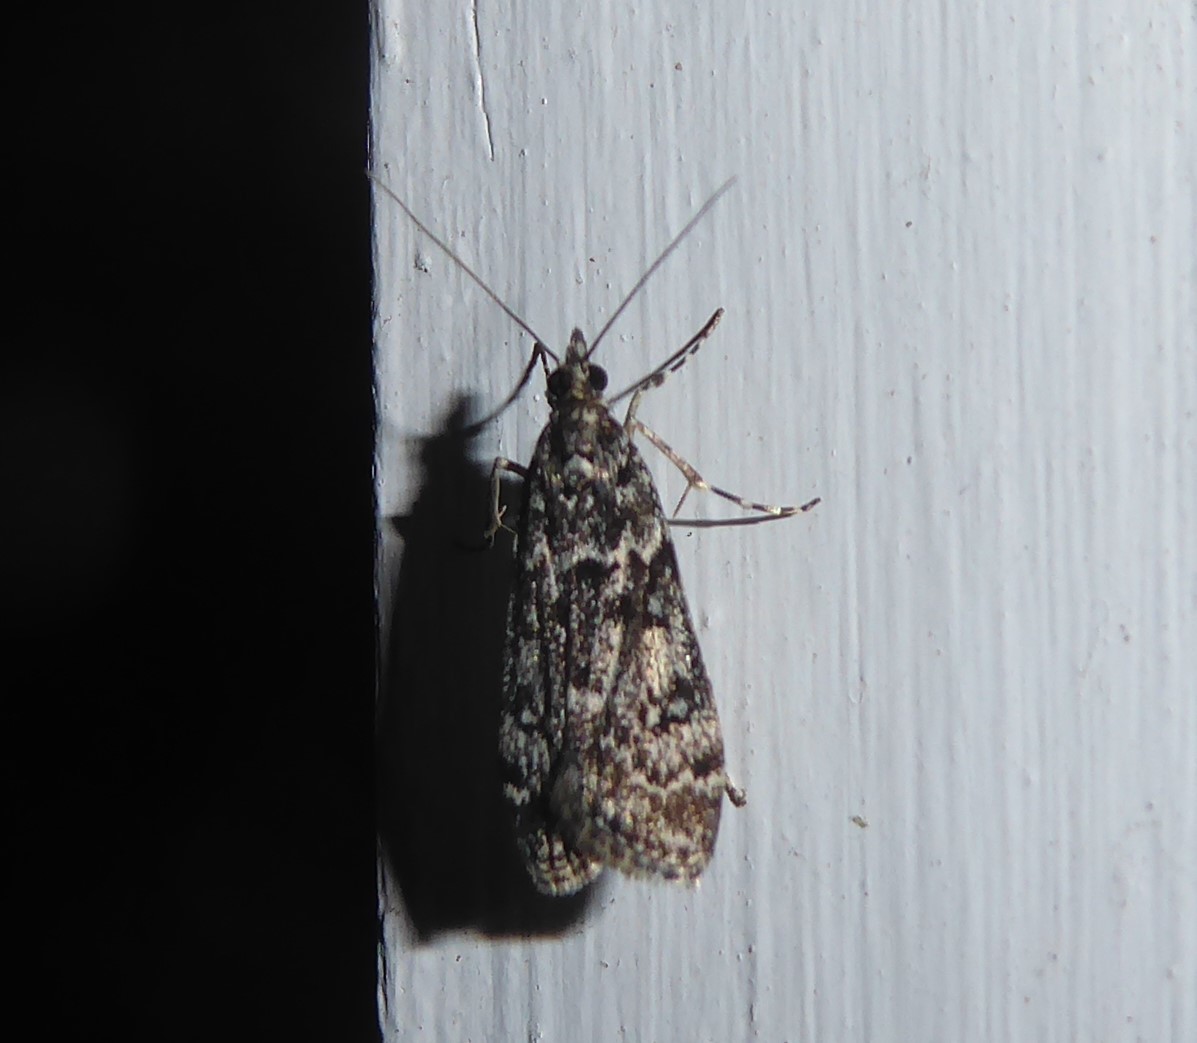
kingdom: Animalia
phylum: Arthropoda
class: Insecta
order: Lepidoptera
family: Crambidae
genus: Eudonia
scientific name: Eudonia philerga
